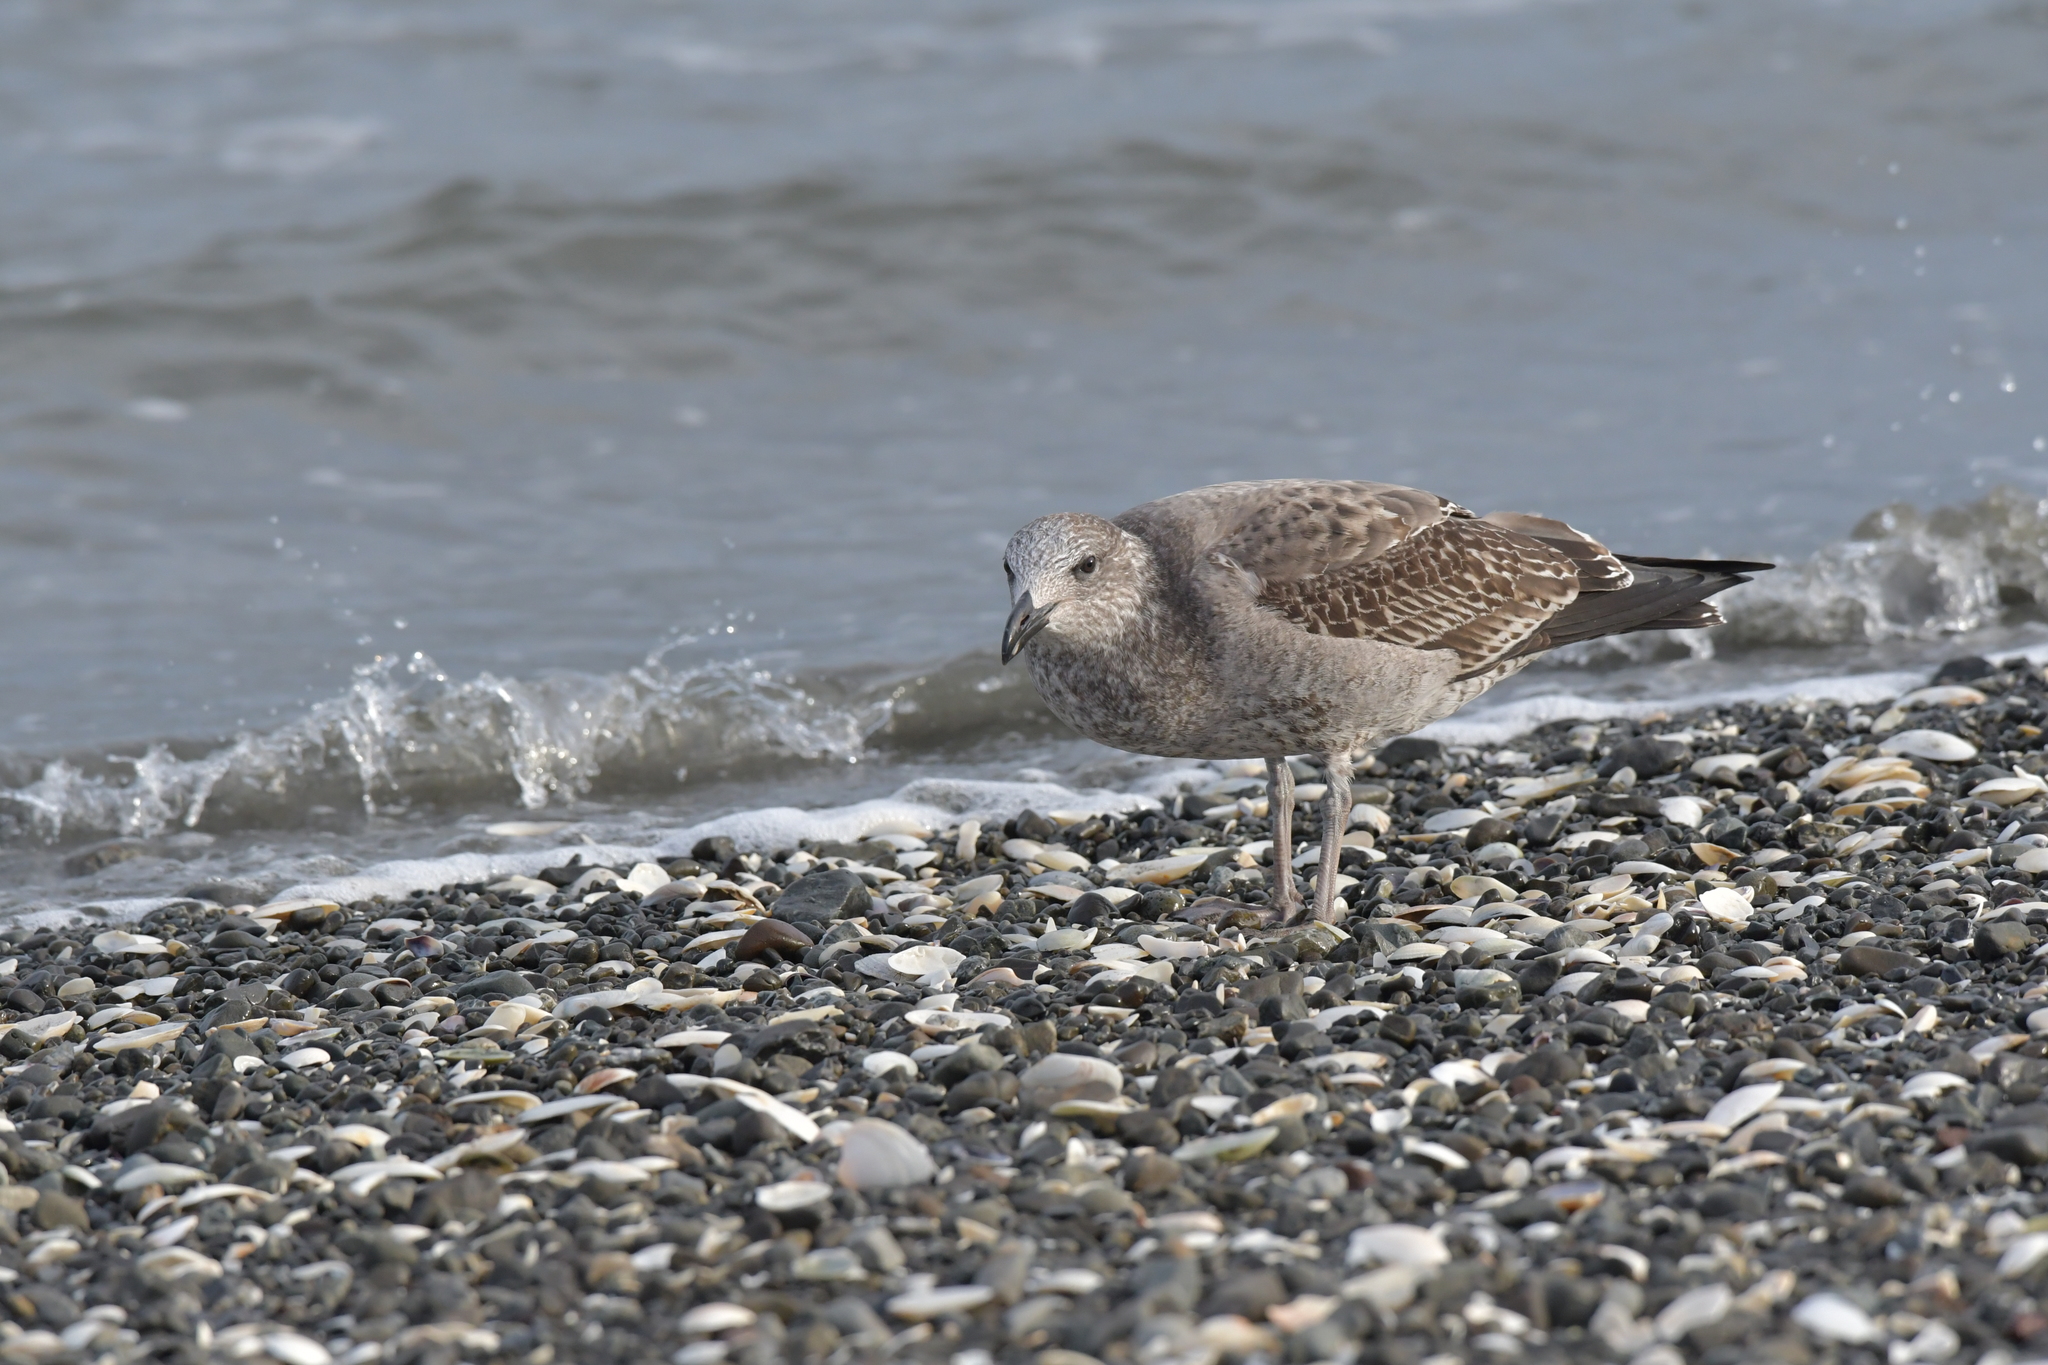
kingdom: Animalia
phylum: Chordata
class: Aves
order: Charadriiformes
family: Laridae
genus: Larus
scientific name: Larus dominicanus
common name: Kelp gull
